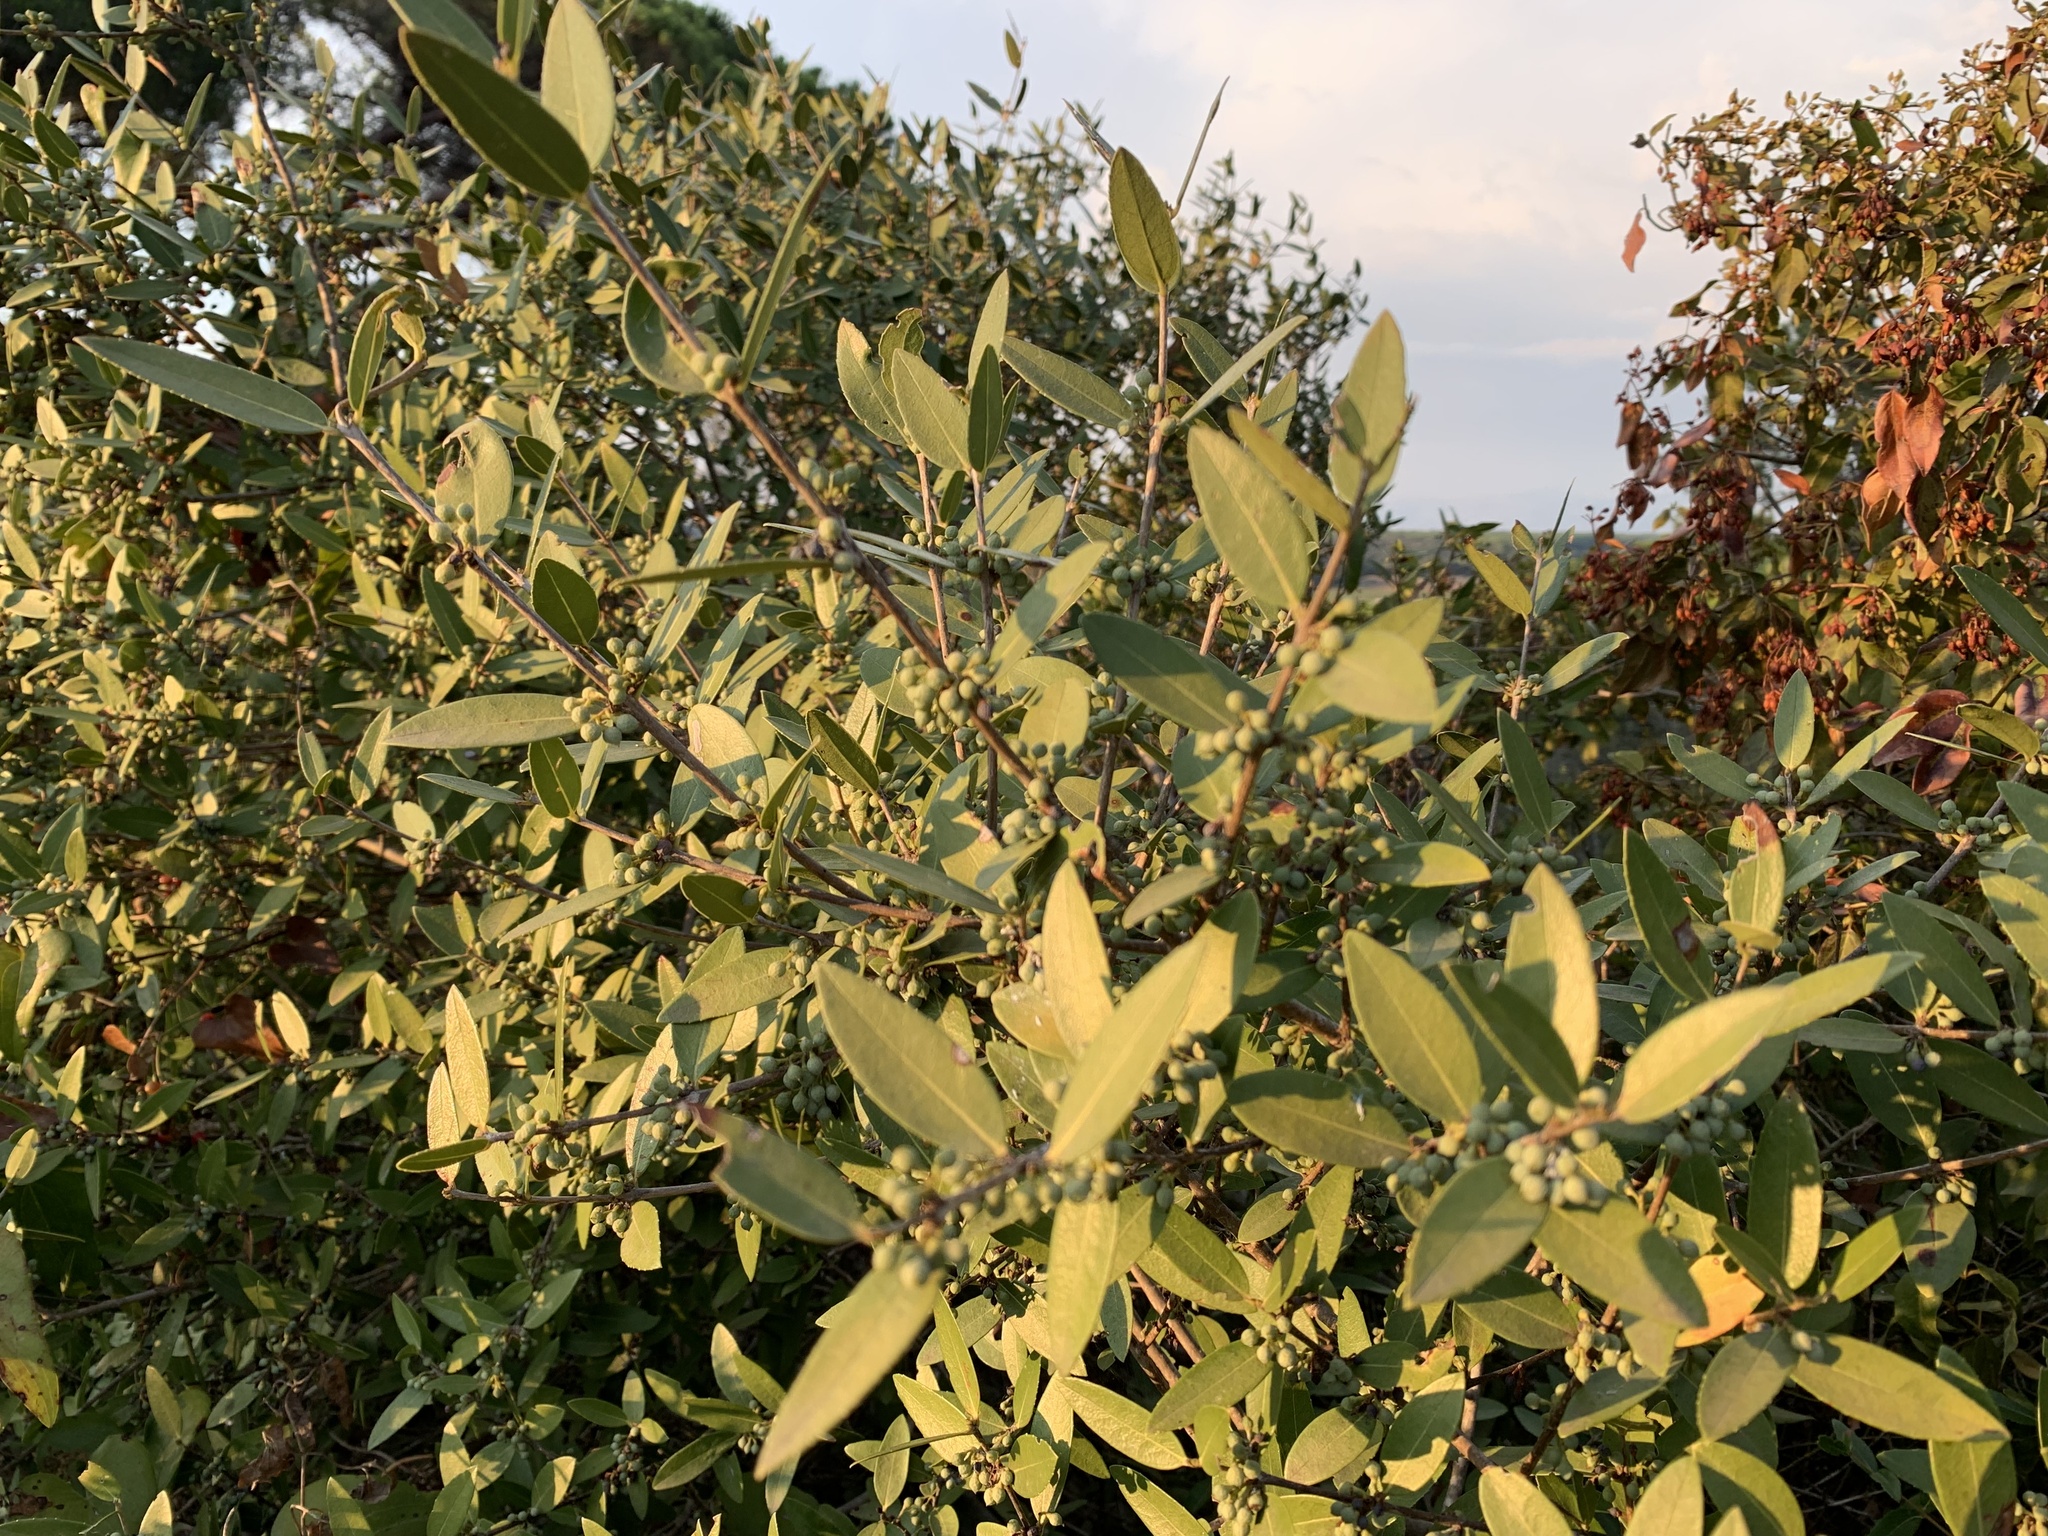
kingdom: Plantae
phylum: Tracheophyta
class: Magnoliopsida
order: Lamiales
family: Oleaceae
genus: Phillyrea
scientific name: Phillyrea latifolia
